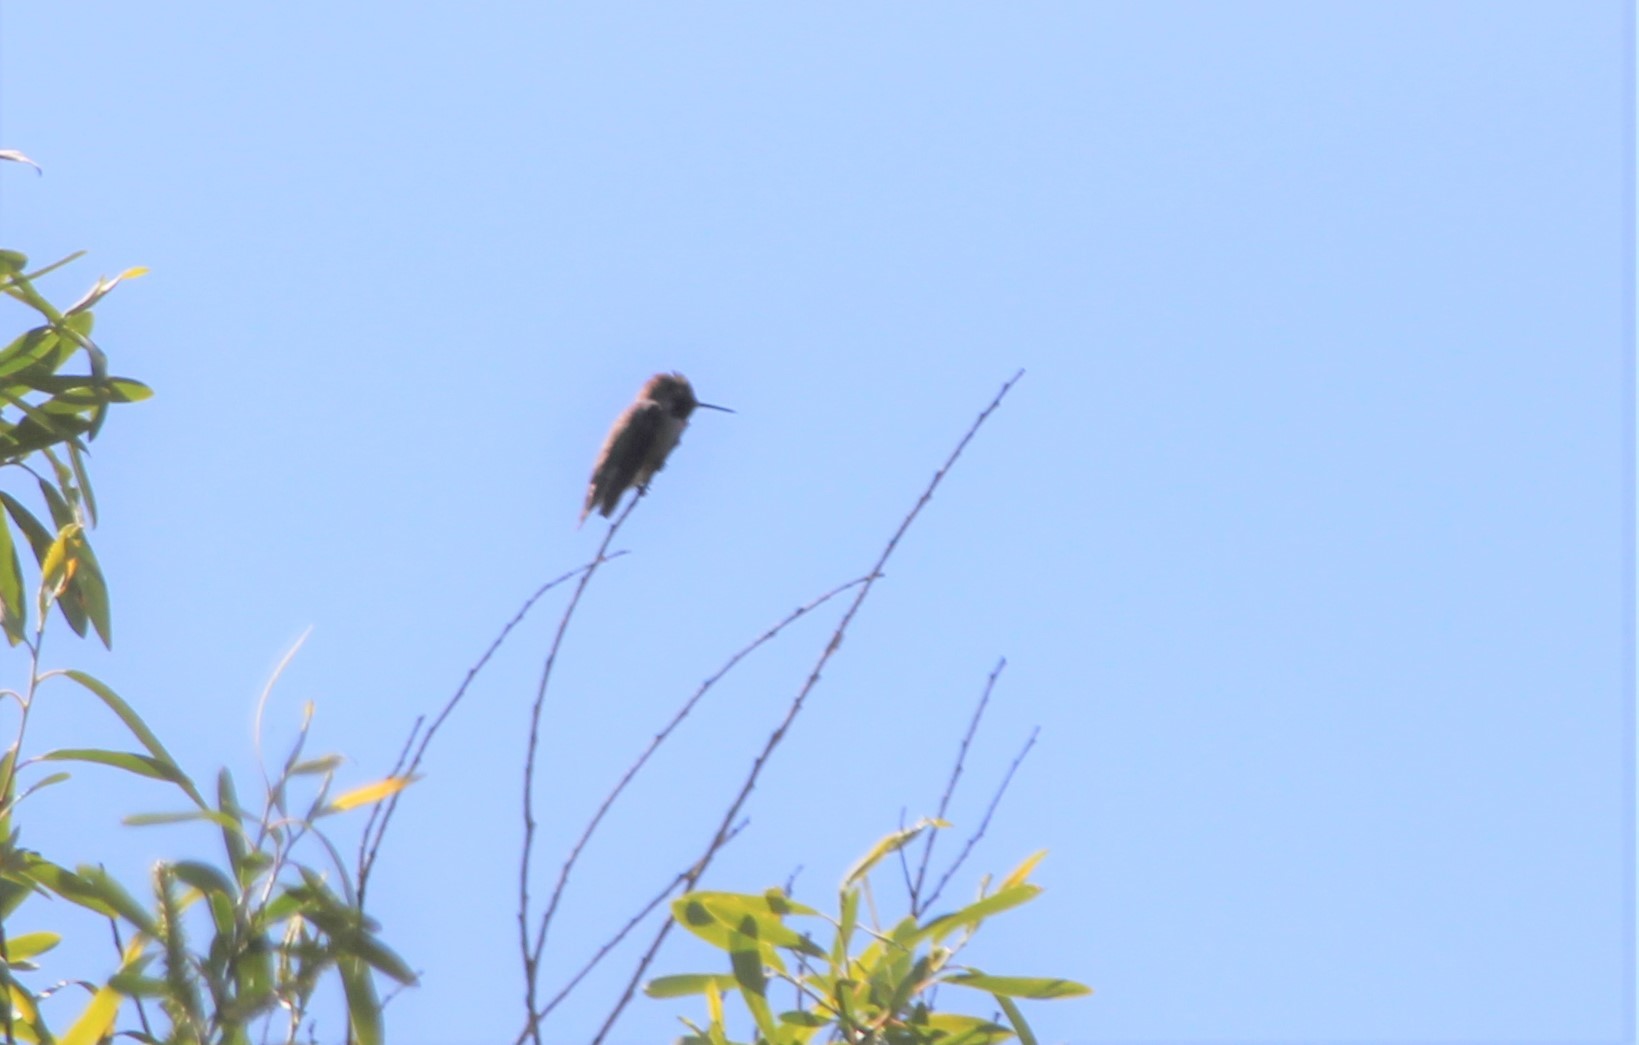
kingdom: Animalia
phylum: Chordata
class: Aves
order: Apodiformes
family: Trochilidae
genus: Calypte
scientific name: Calypte anna
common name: Anna's hummingbird
